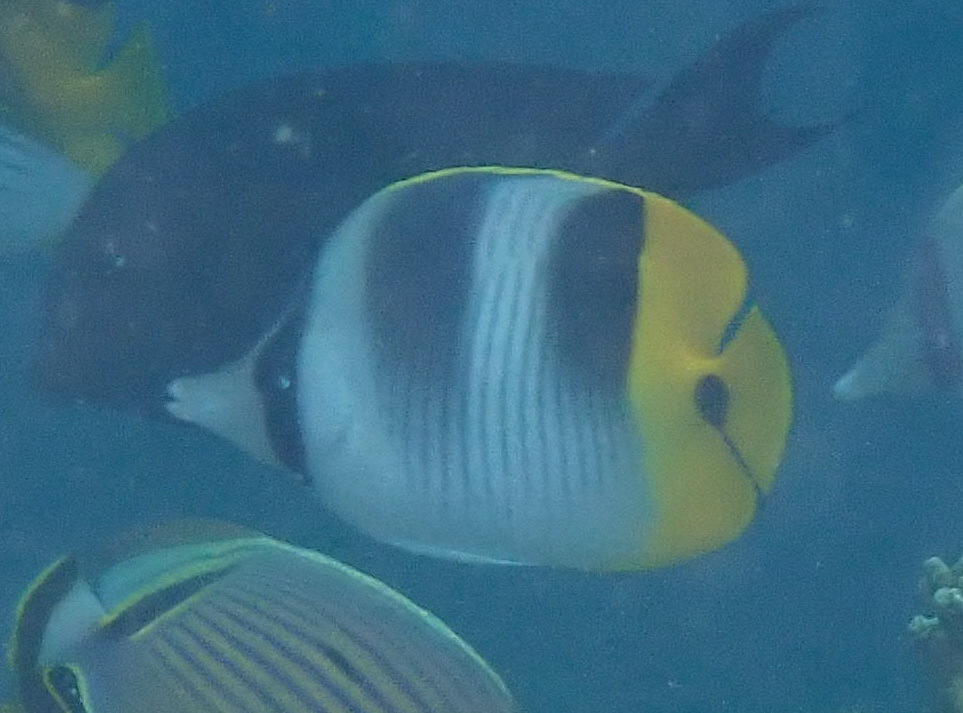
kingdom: Animalia
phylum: Chordata
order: Perciformes
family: Chaetodontidae
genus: Chaetodon
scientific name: Chaetodon ulietensis
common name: Pacific double-saddle butterflyfish
